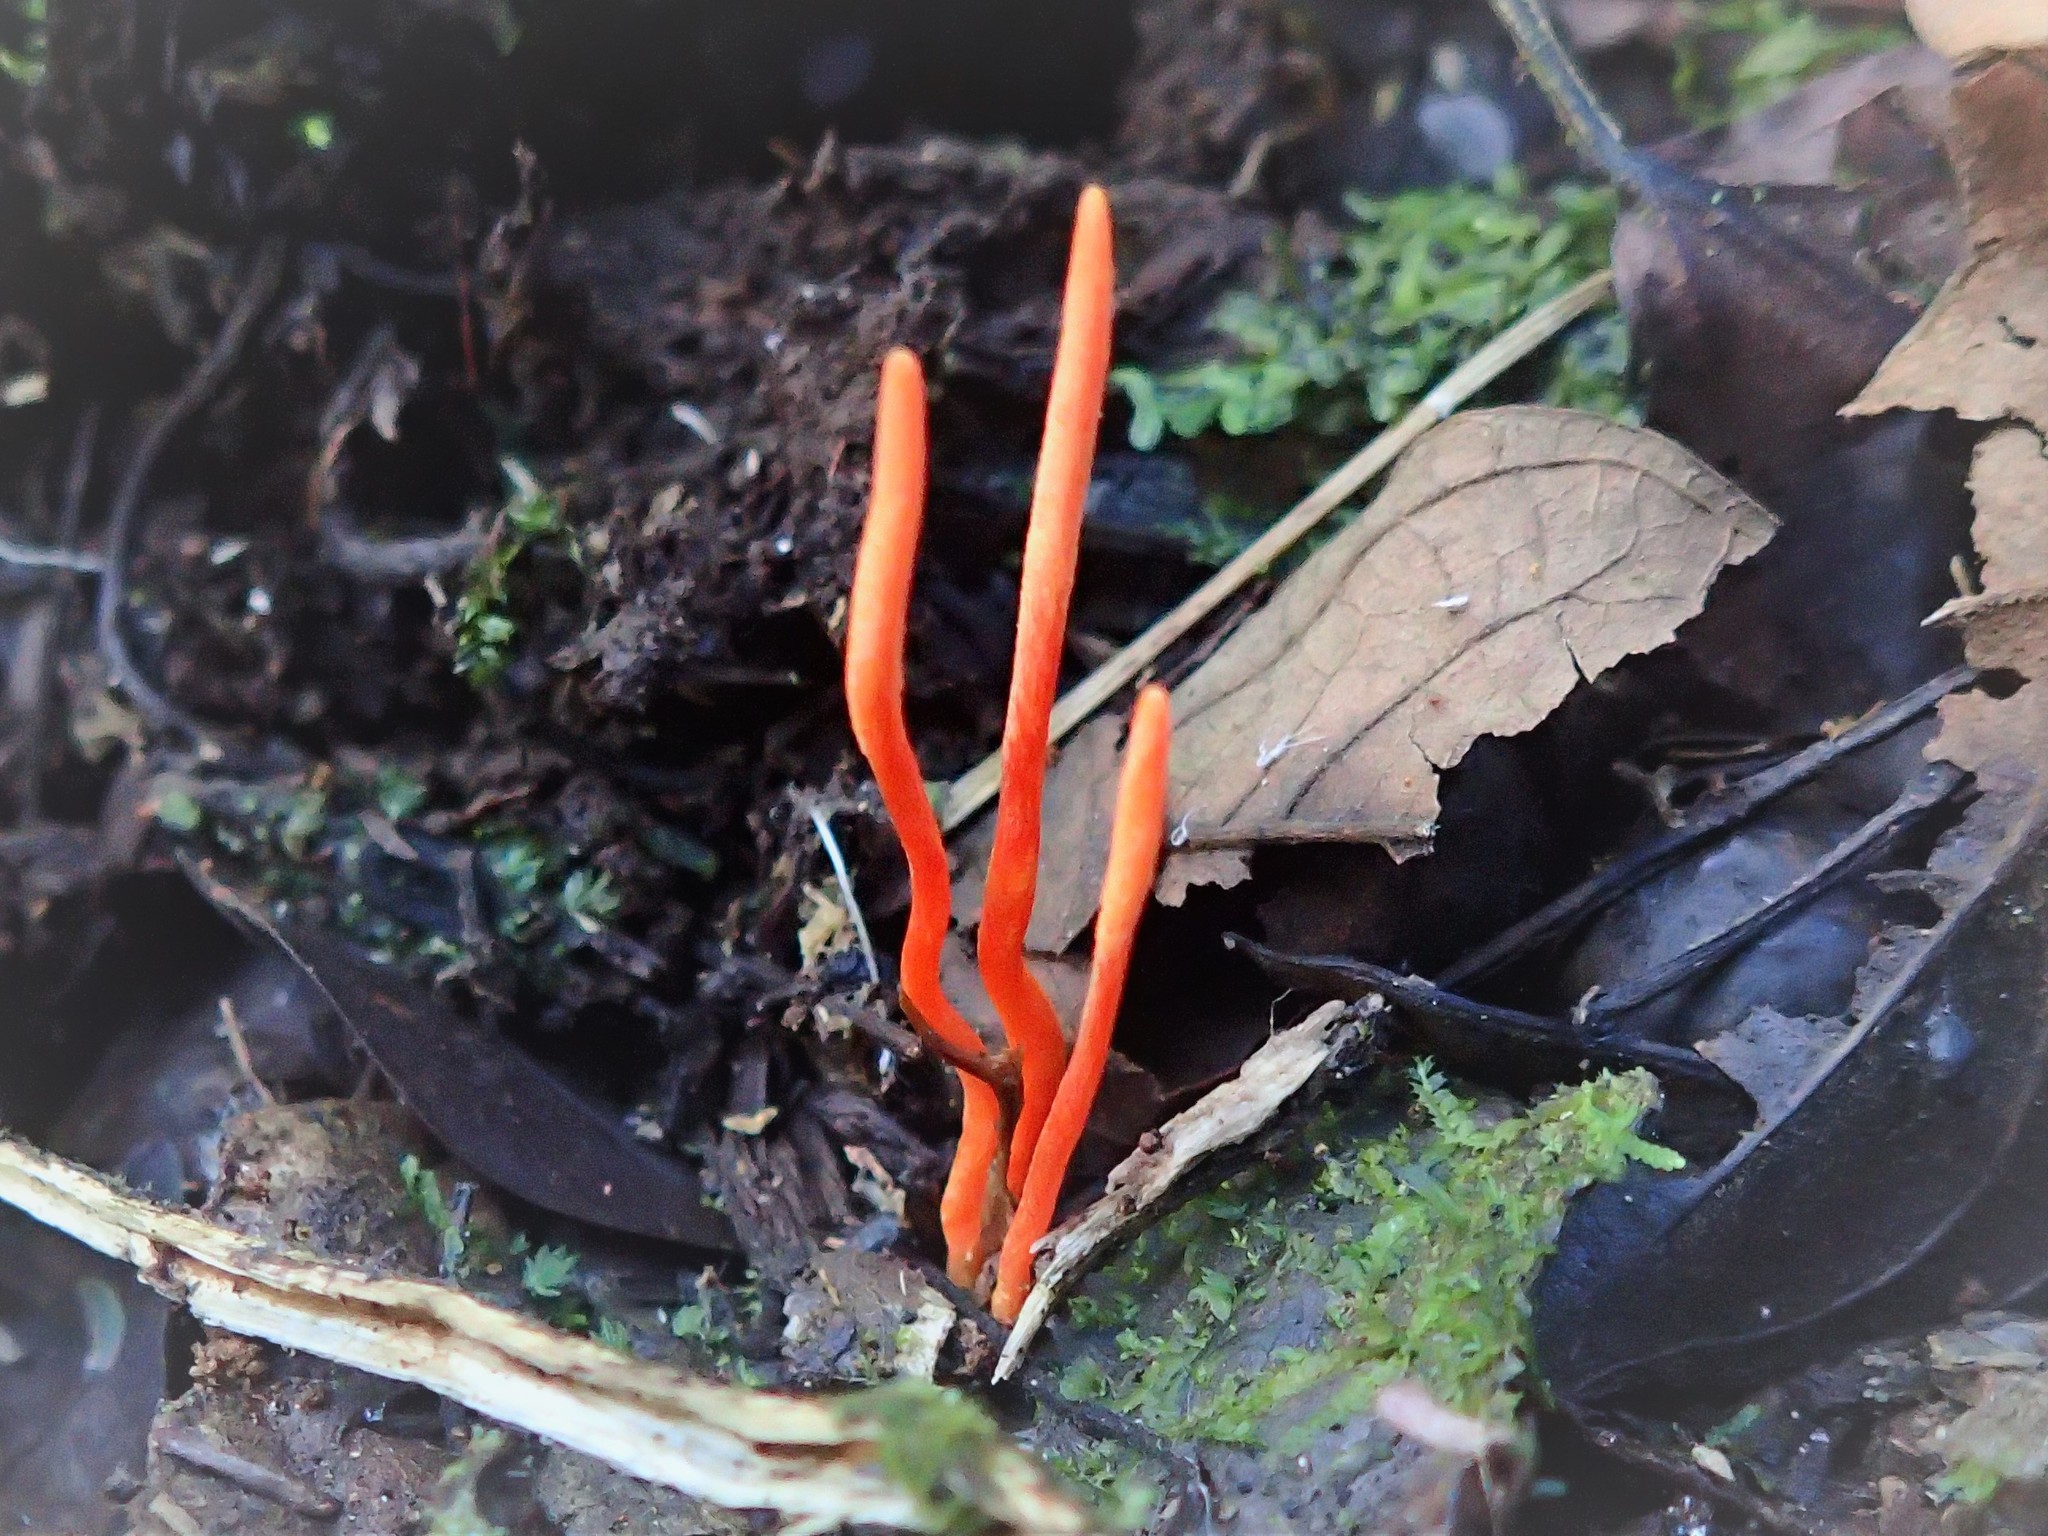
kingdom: Fungi
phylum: Ascomycota
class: Sordariomycetes
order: Hypocreales
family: Cordycipitaceae
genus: Cordyceps
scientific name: Cordyceps nidus
